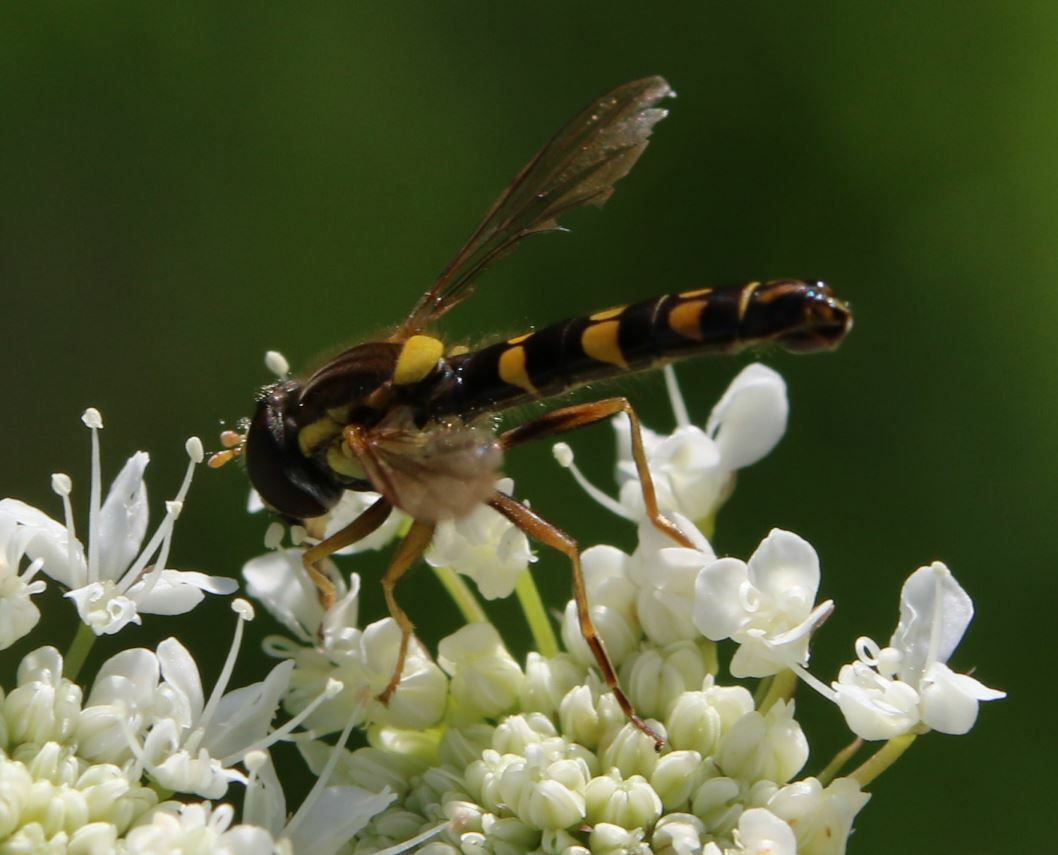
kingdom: Animalia
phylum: Arthropoda
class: Insecta
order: Diptera
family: Syrphidae
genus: Sphaerophoria
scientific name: Sphaerophoria scripta
